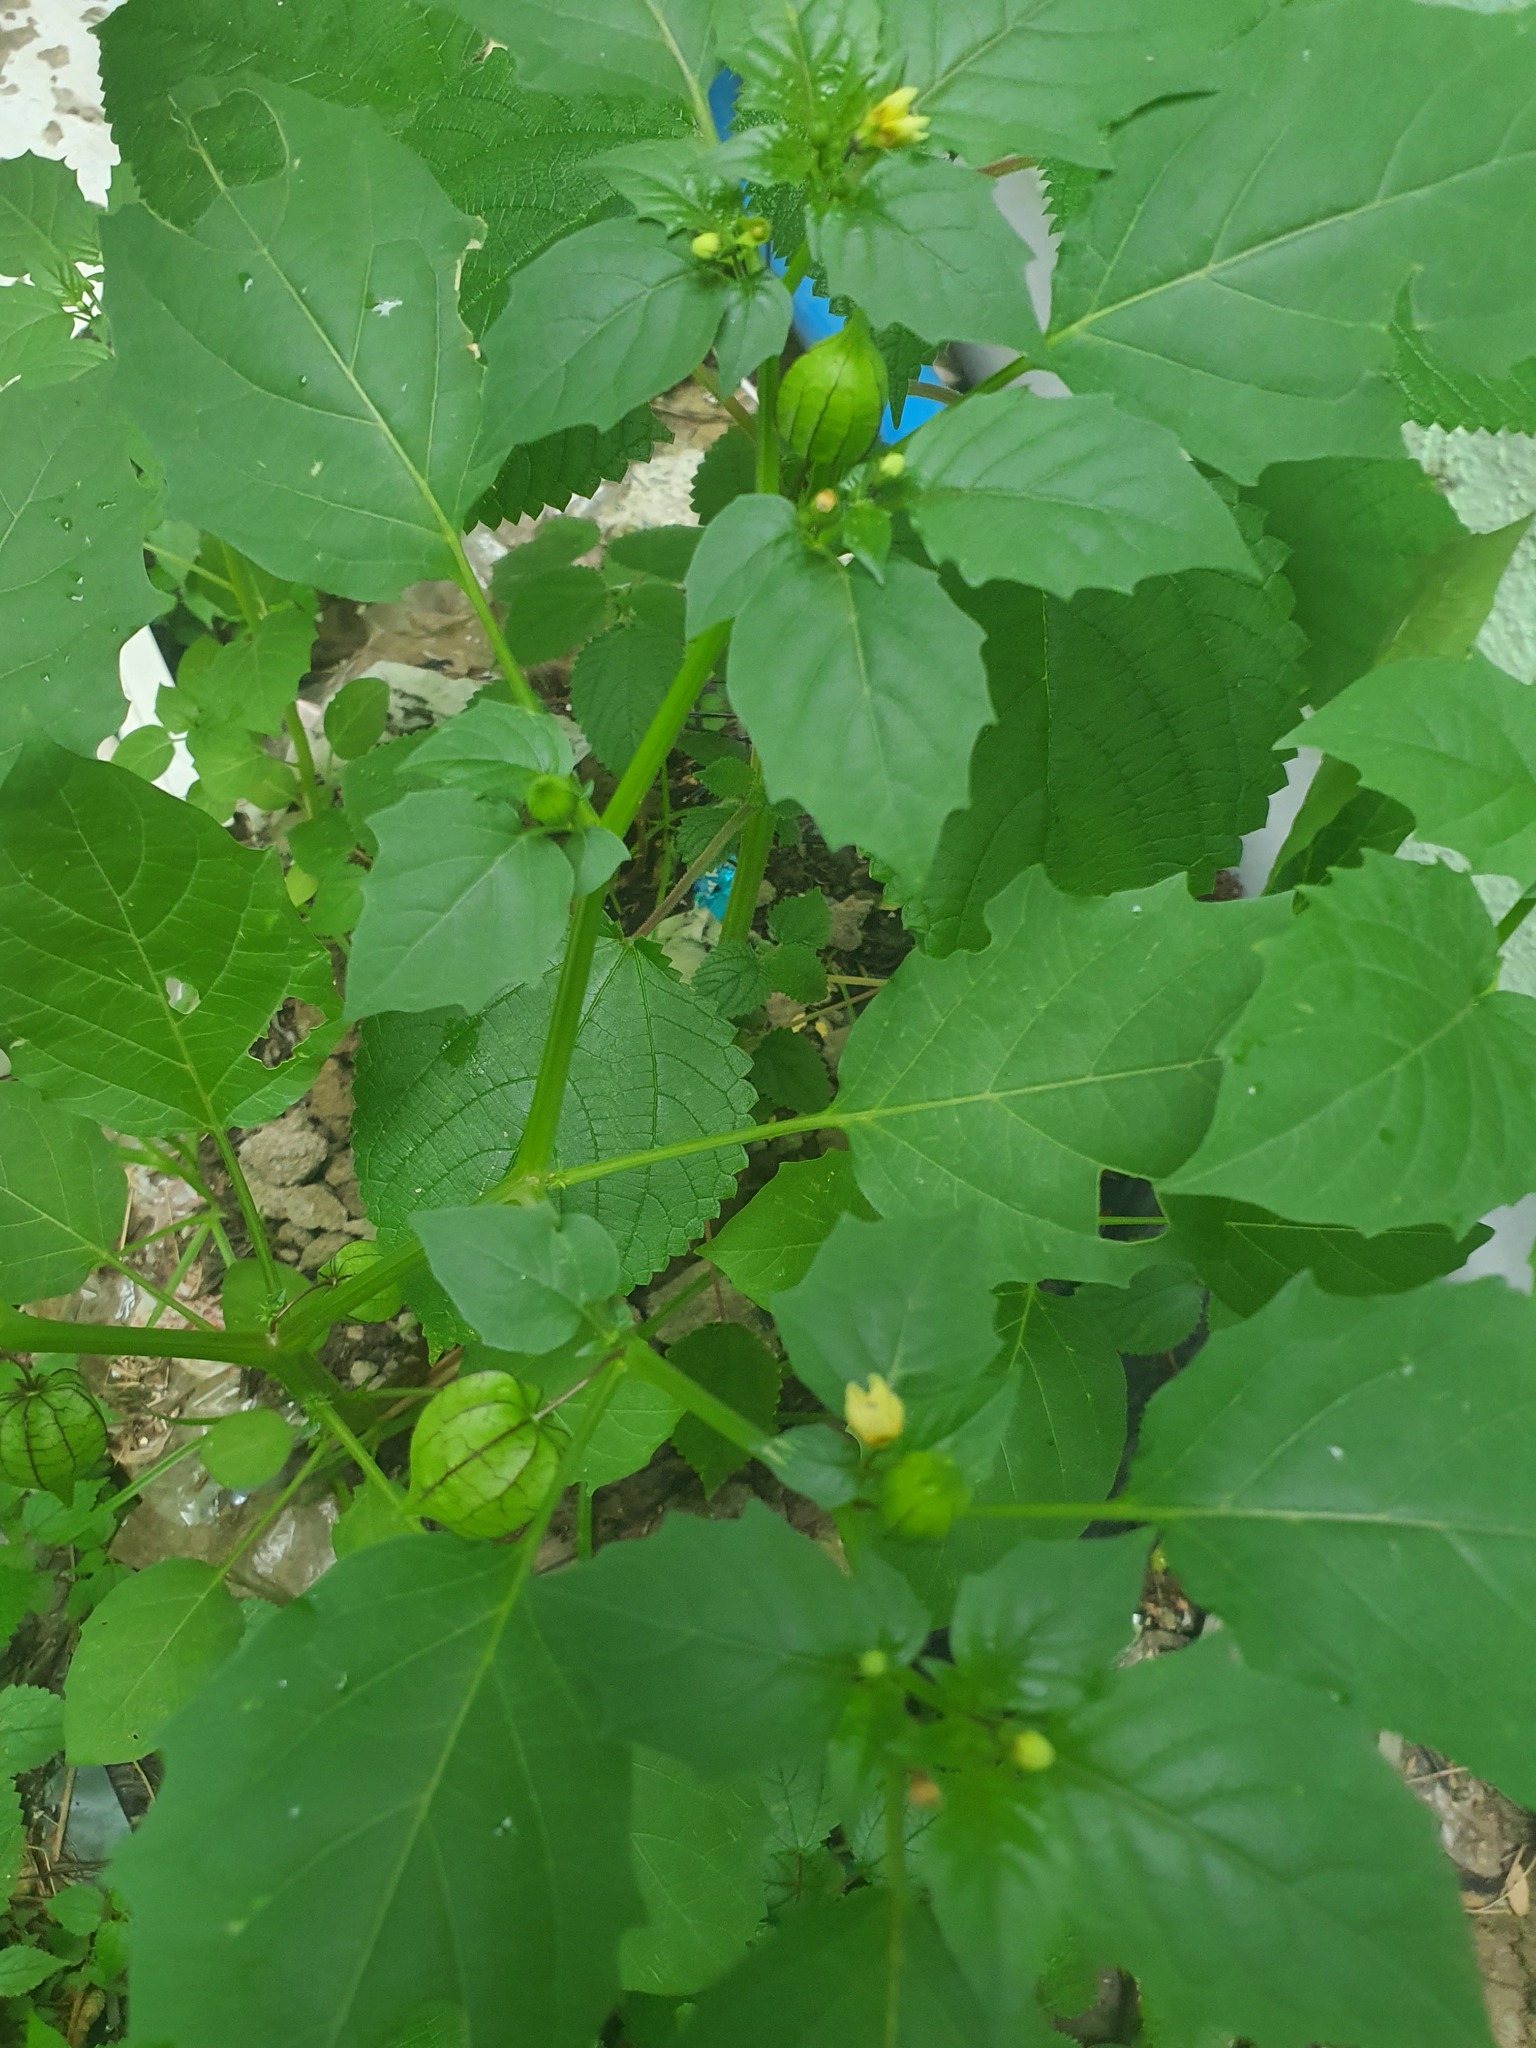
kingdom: Plantae
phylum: Tracheophyta
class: Magnoliopsida
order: Solanales
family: Solanaceae
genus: Physalis
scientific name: Physalis angulata
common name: Angular winter-cherry
